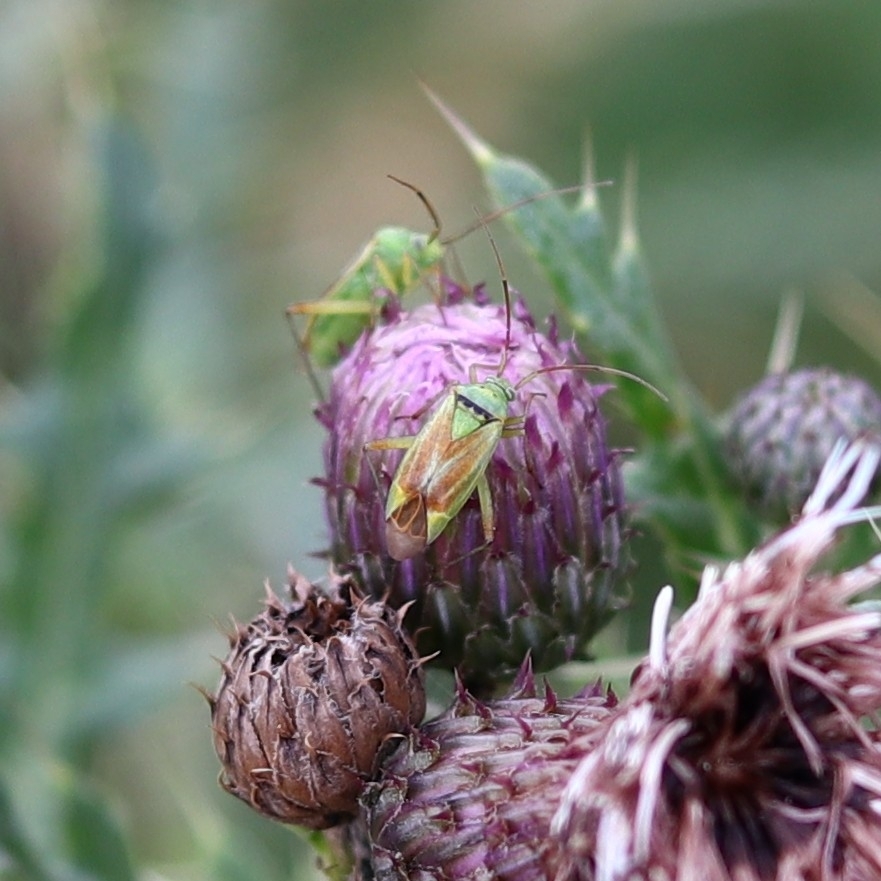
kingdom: Animalia
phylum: Arthropoda
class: Insecta
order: Hemiptera
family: Miridae
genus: Closterotomus
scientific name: Closterotomus norvegicus
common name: Plant bug
